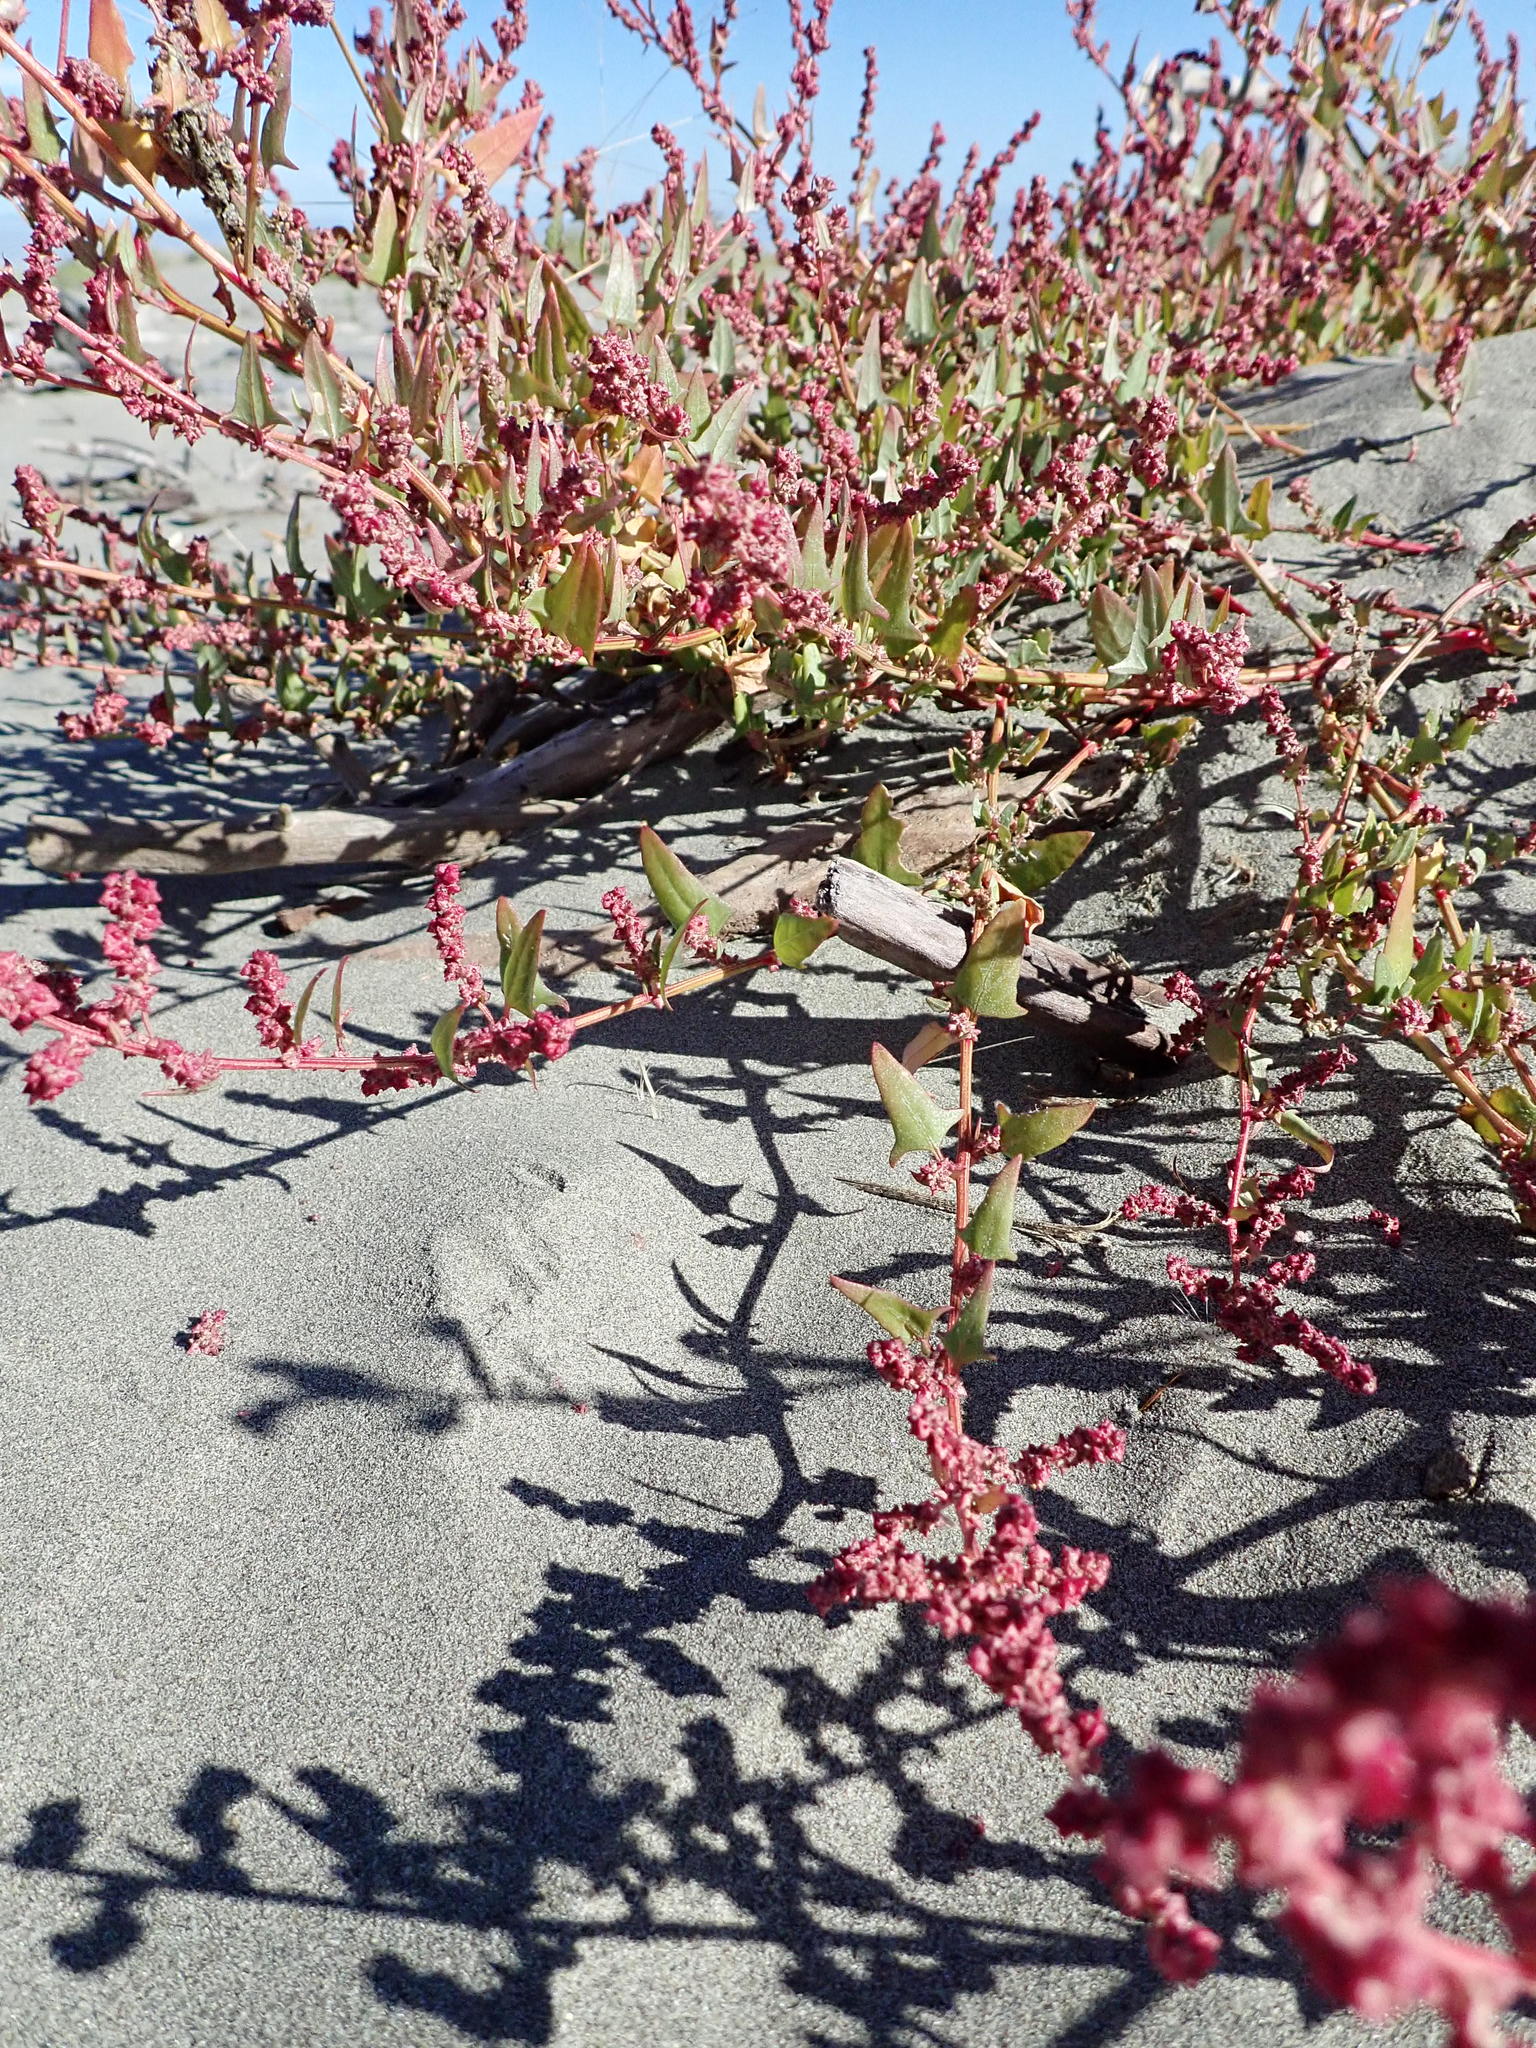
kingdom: Plantae
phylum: Tracheophyta
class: Magnoliopsida
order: Caryophyllales
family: Amaranthaceae
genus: Atriplex
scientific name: Atriplex prostrata
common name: Spear-leaved orache
